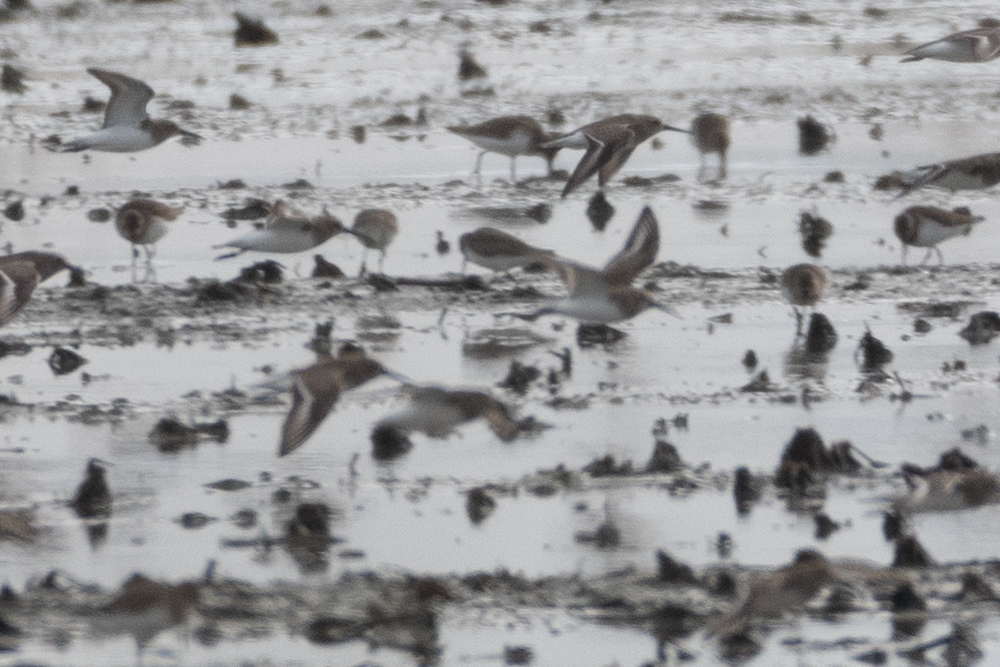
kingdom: Animalia
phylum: Chordata
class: Aves
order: Charadriiformes
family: Scolopacidae
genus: Calidris
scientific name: Calidris alpina
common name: Dunlin
